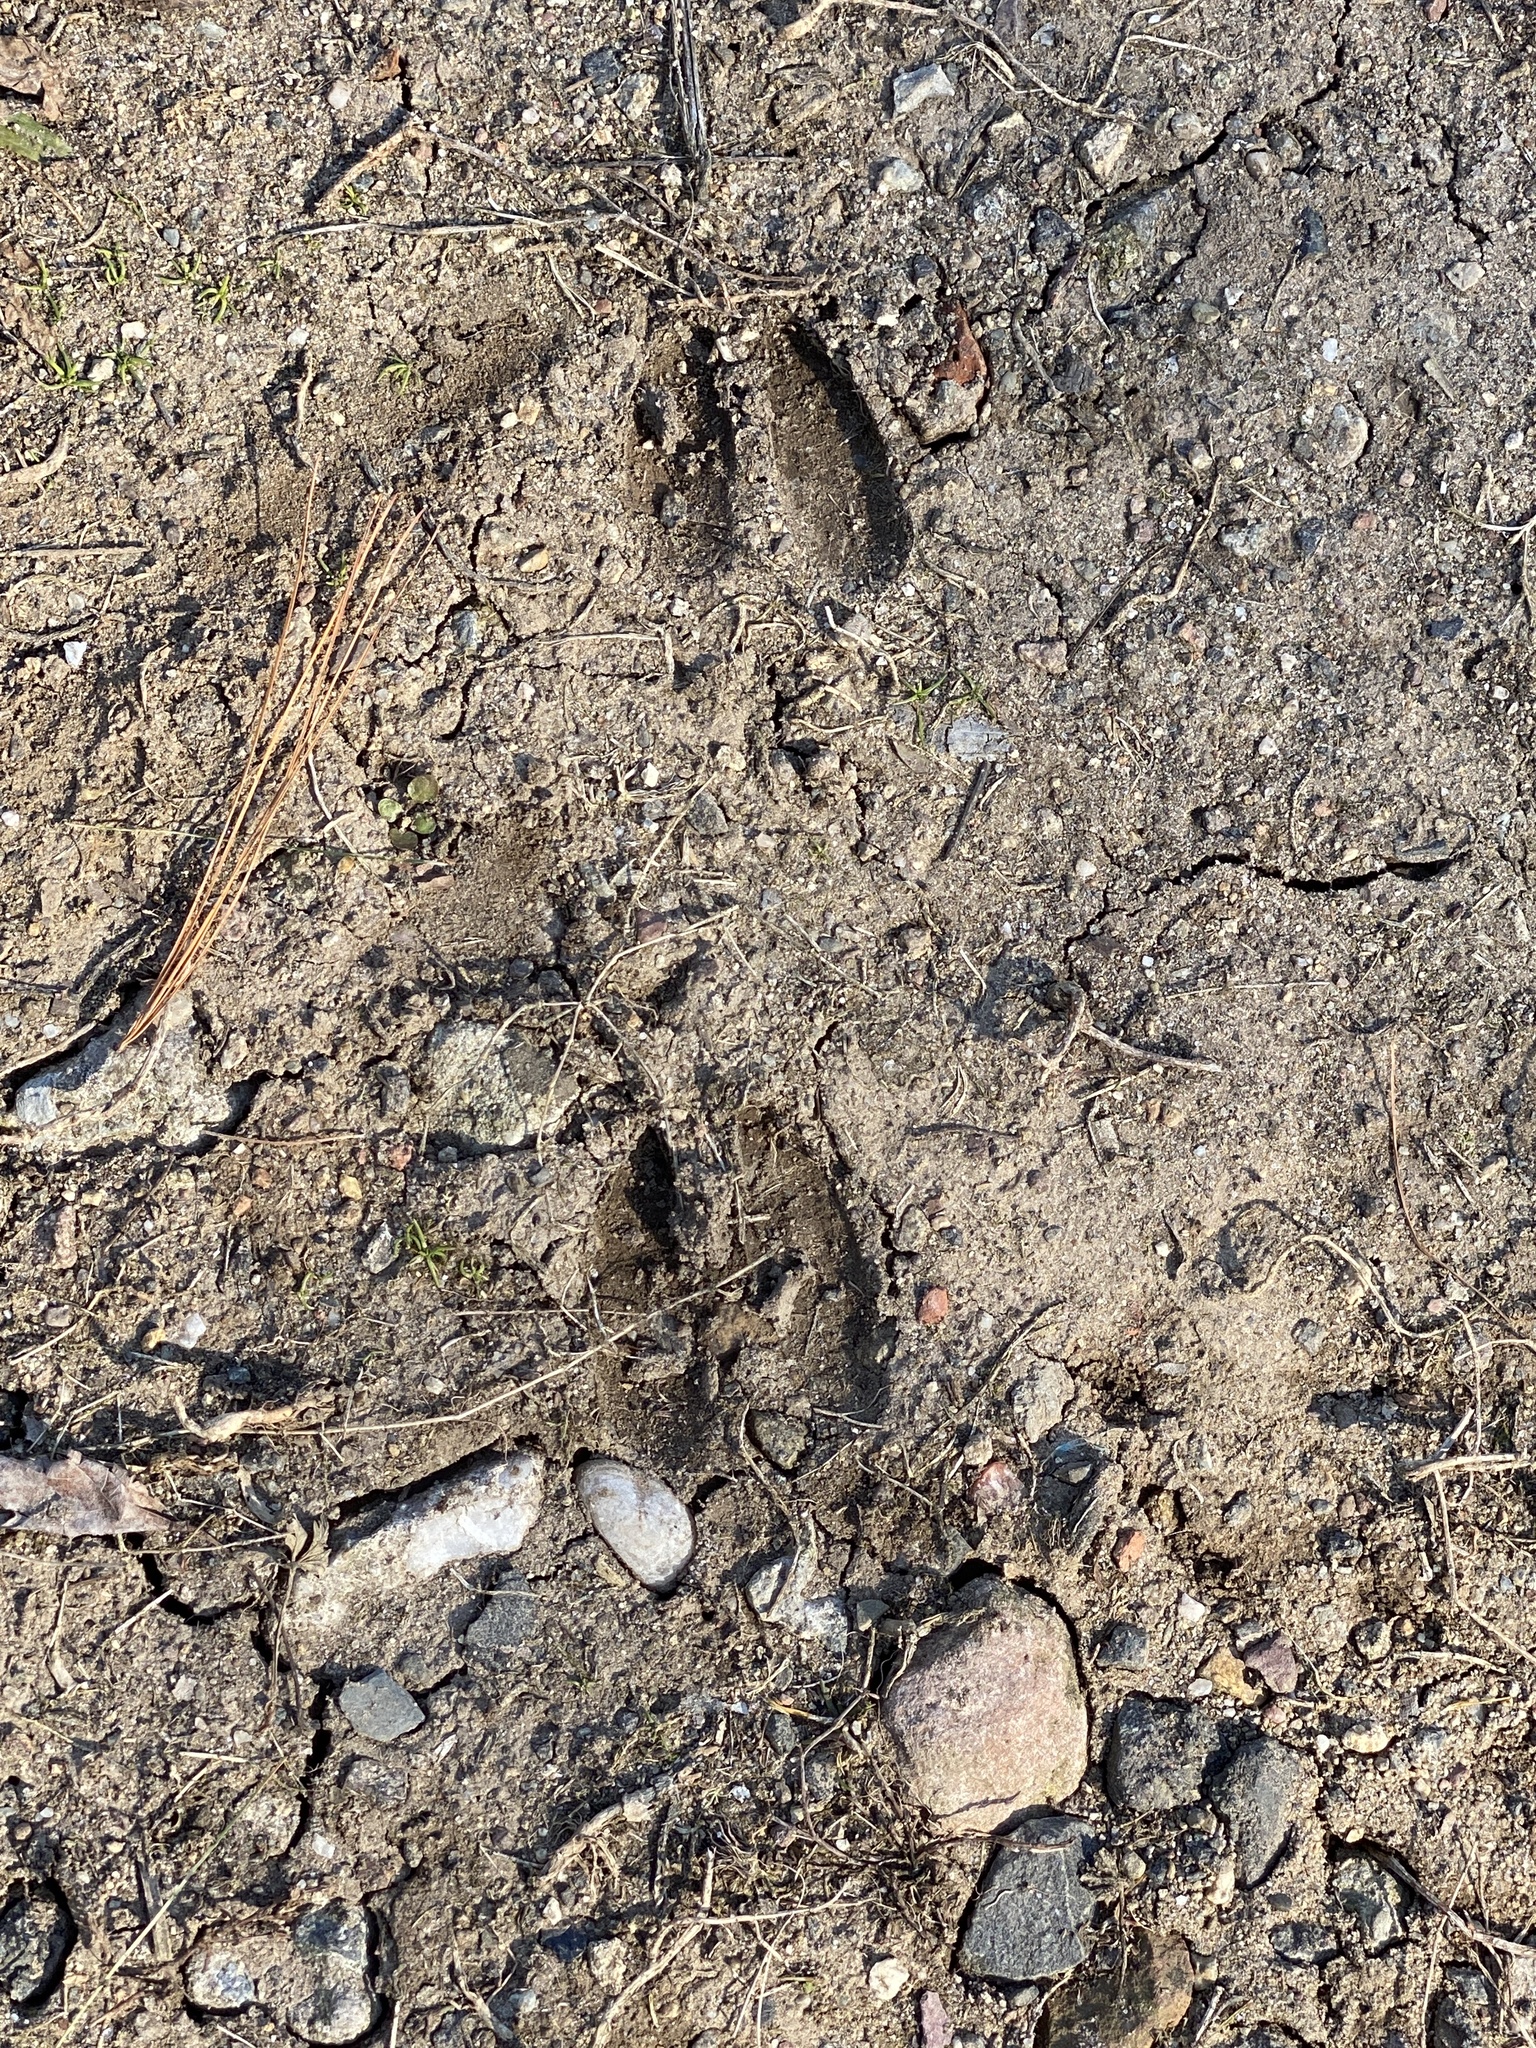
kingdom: Animalia
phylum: Chordata
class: Mammalia
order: Artiodactyla
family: Cervidae
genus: Odocoileus
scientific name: Odocoileus virginianus
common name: White-tailed deer
